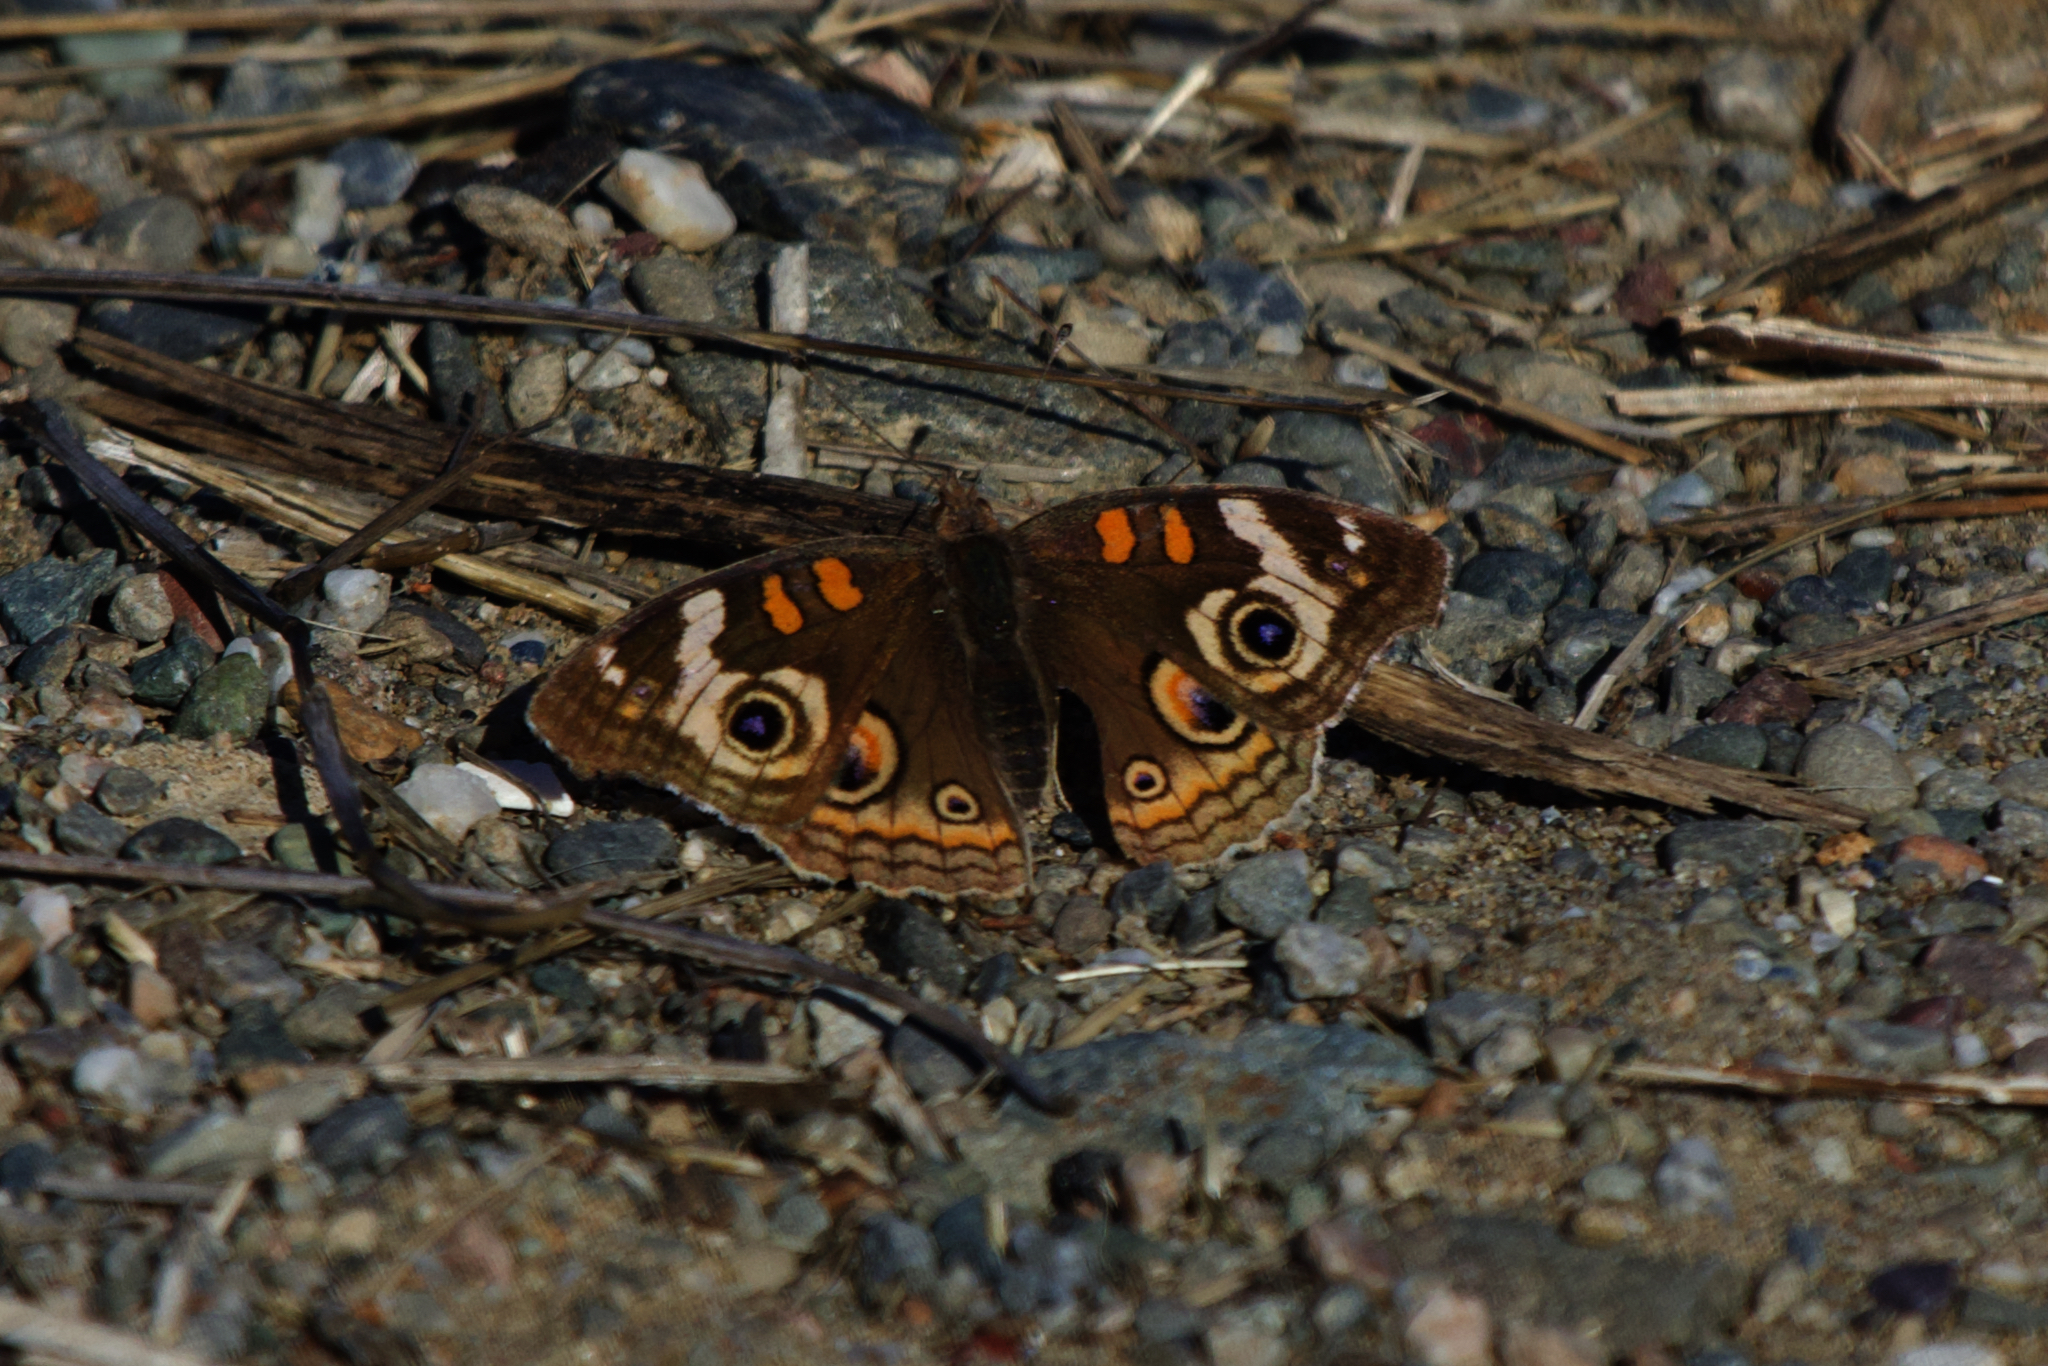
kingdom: Animalia
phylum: Arthropoda
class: Insecta
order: Lepidoptera
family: Nymphalidae
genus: Junonia
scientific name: Junonia grisea
